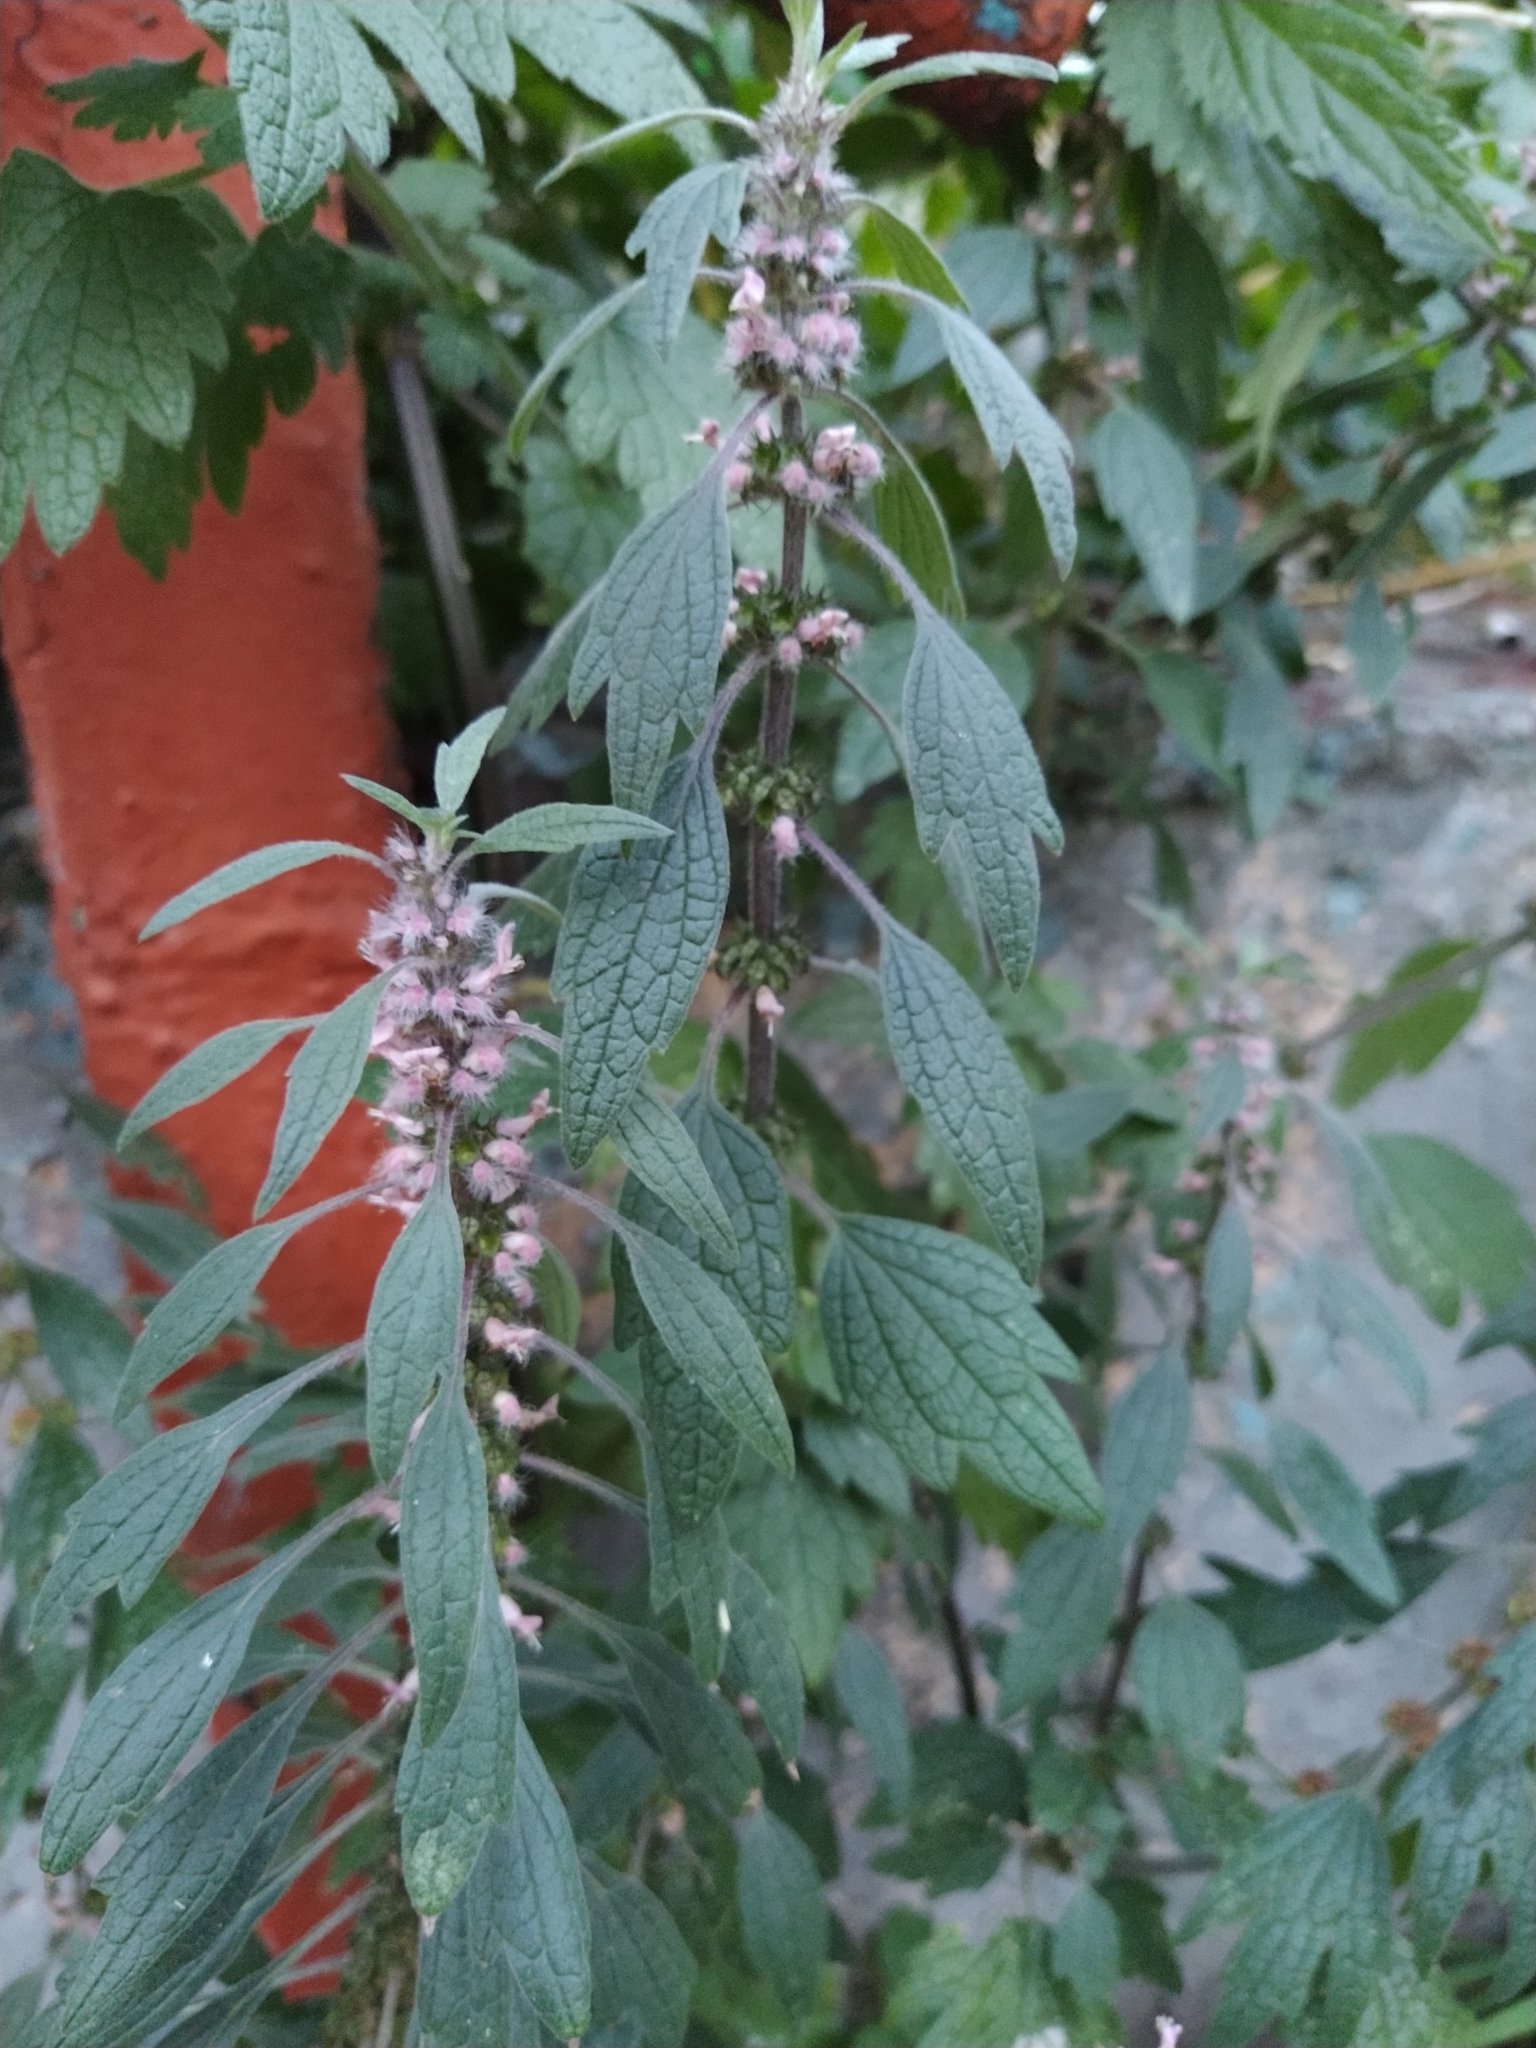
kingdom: Plantae
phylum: Tracheophyta
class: Magnoliopsida
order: Lamiales
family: Lamiaceae
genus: Leonurus
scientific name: Leonurus quinquelobatus
